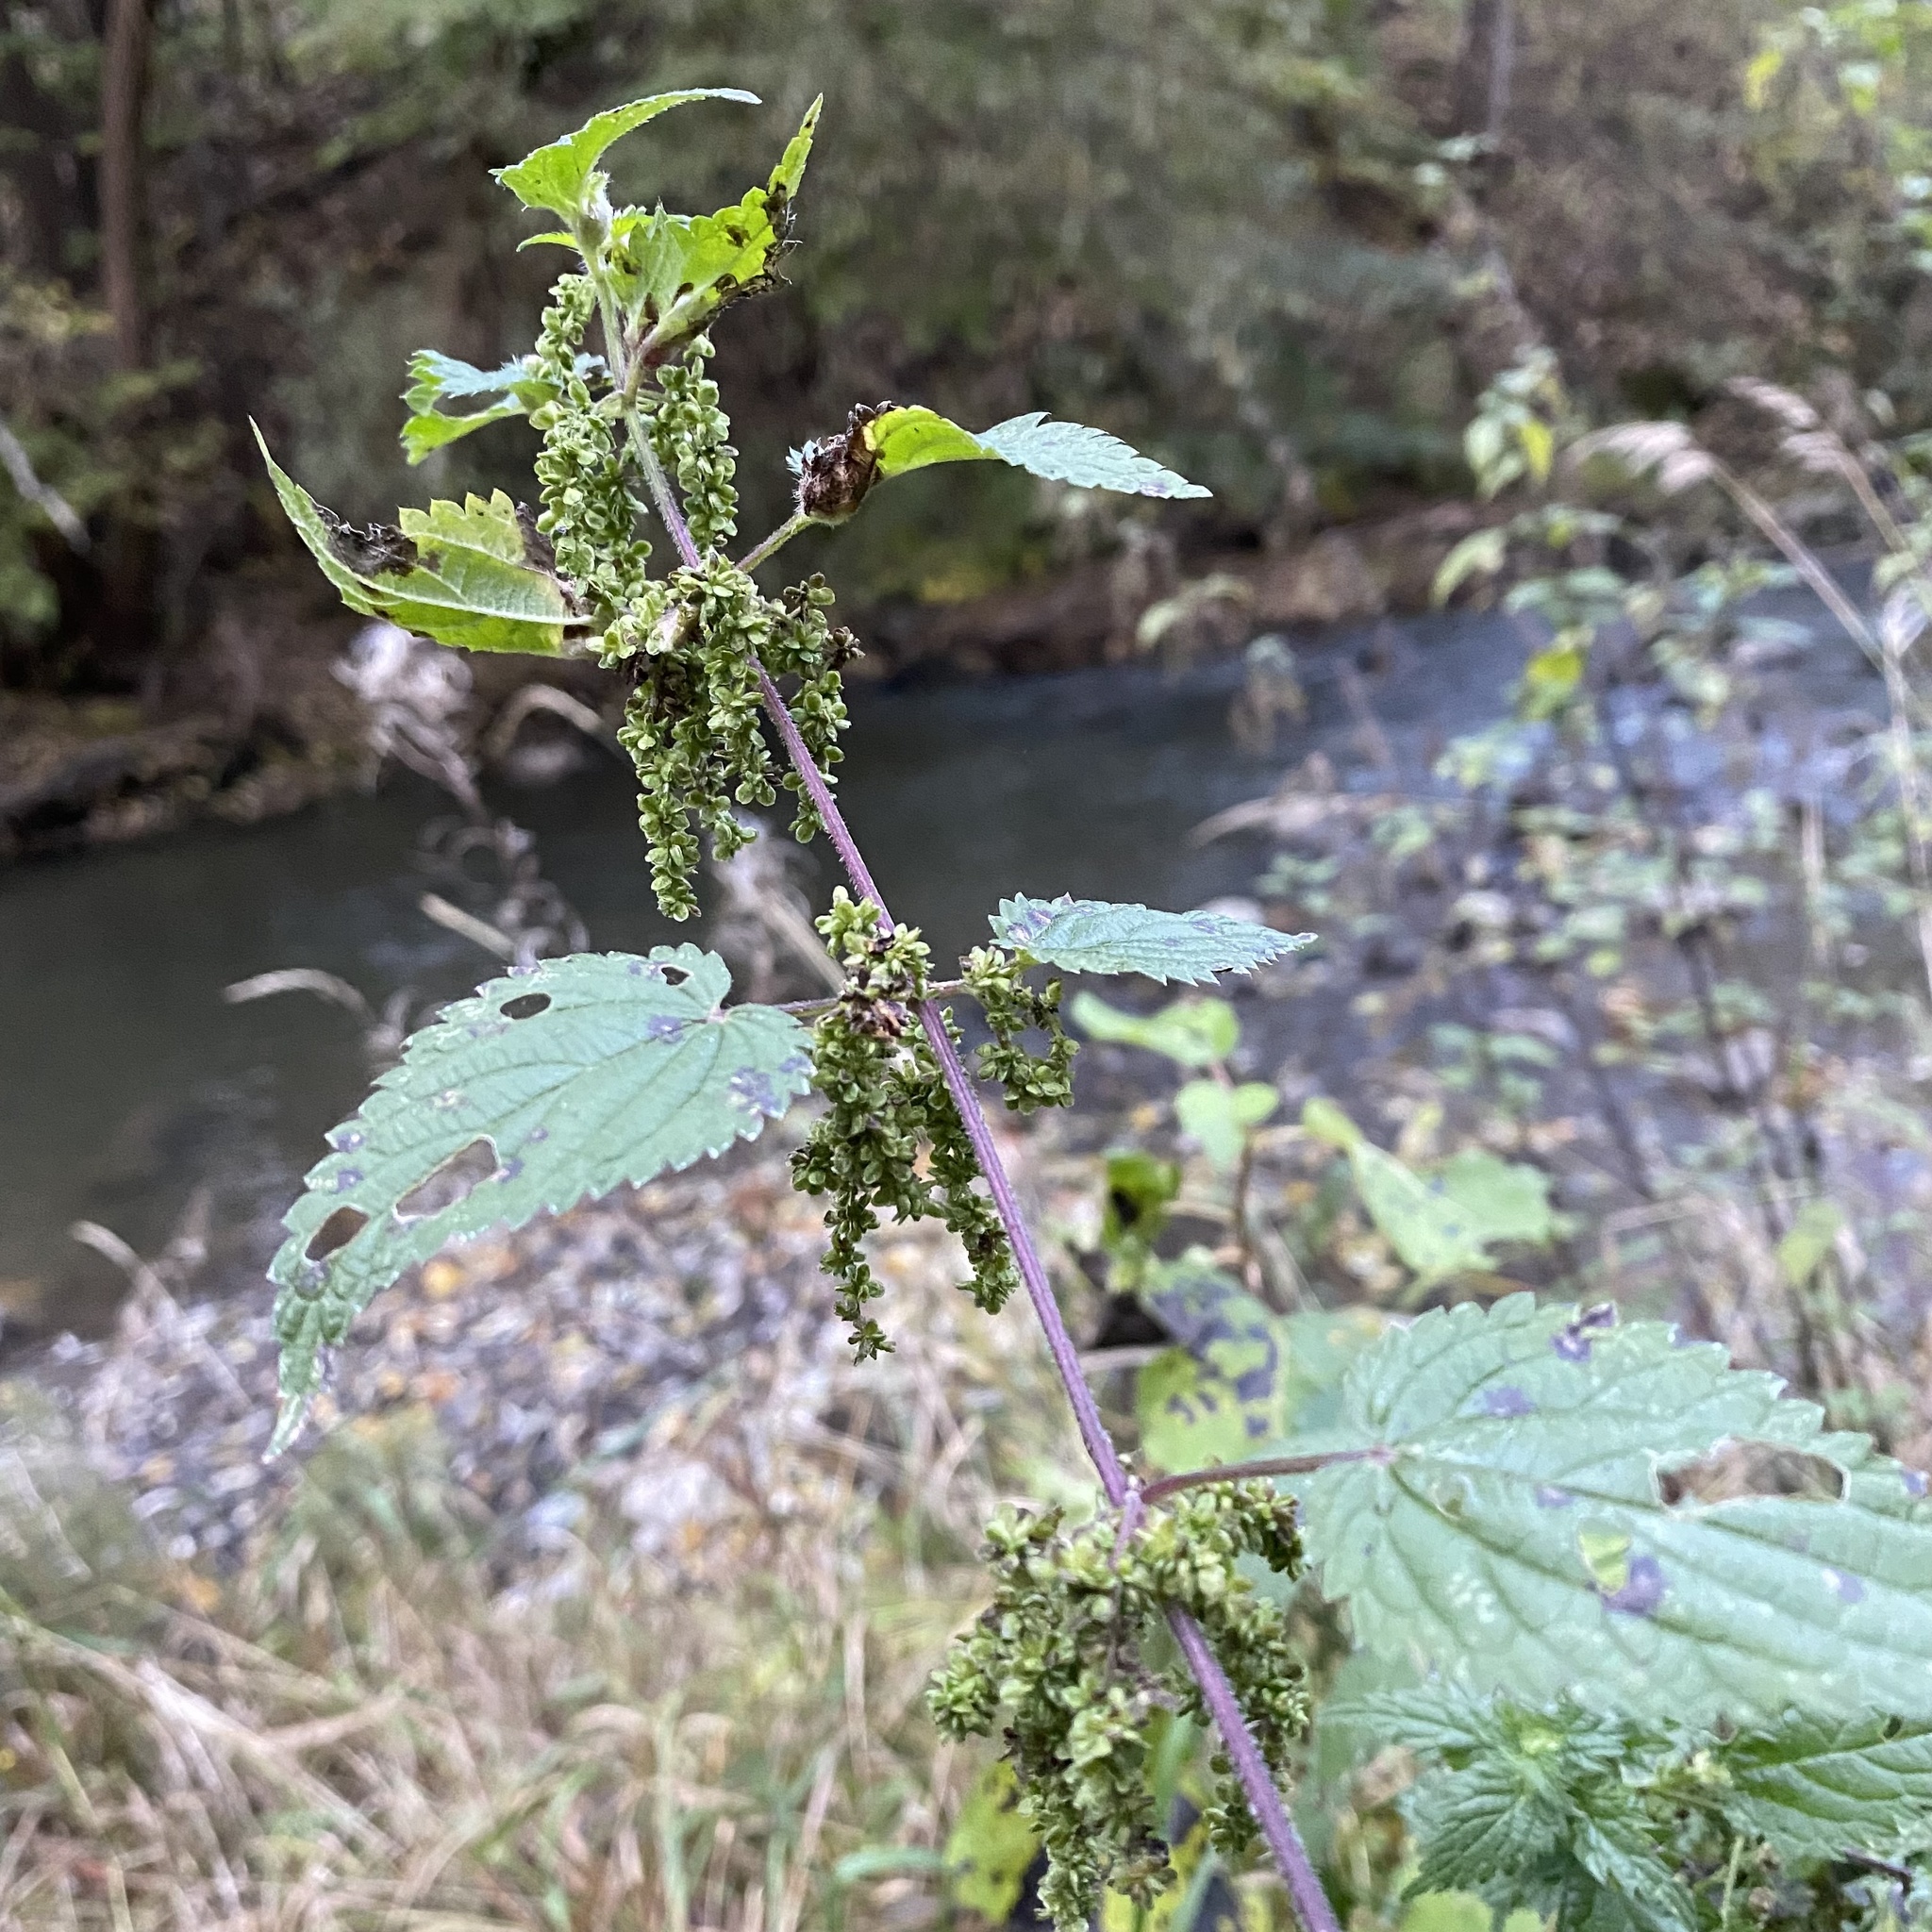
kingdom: Plantae
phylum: Tracheophyta
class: Magnoliopsida
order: Rosales
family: Urticaceae
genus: Urtica
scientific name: Urtica dioica
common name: Common nettle
